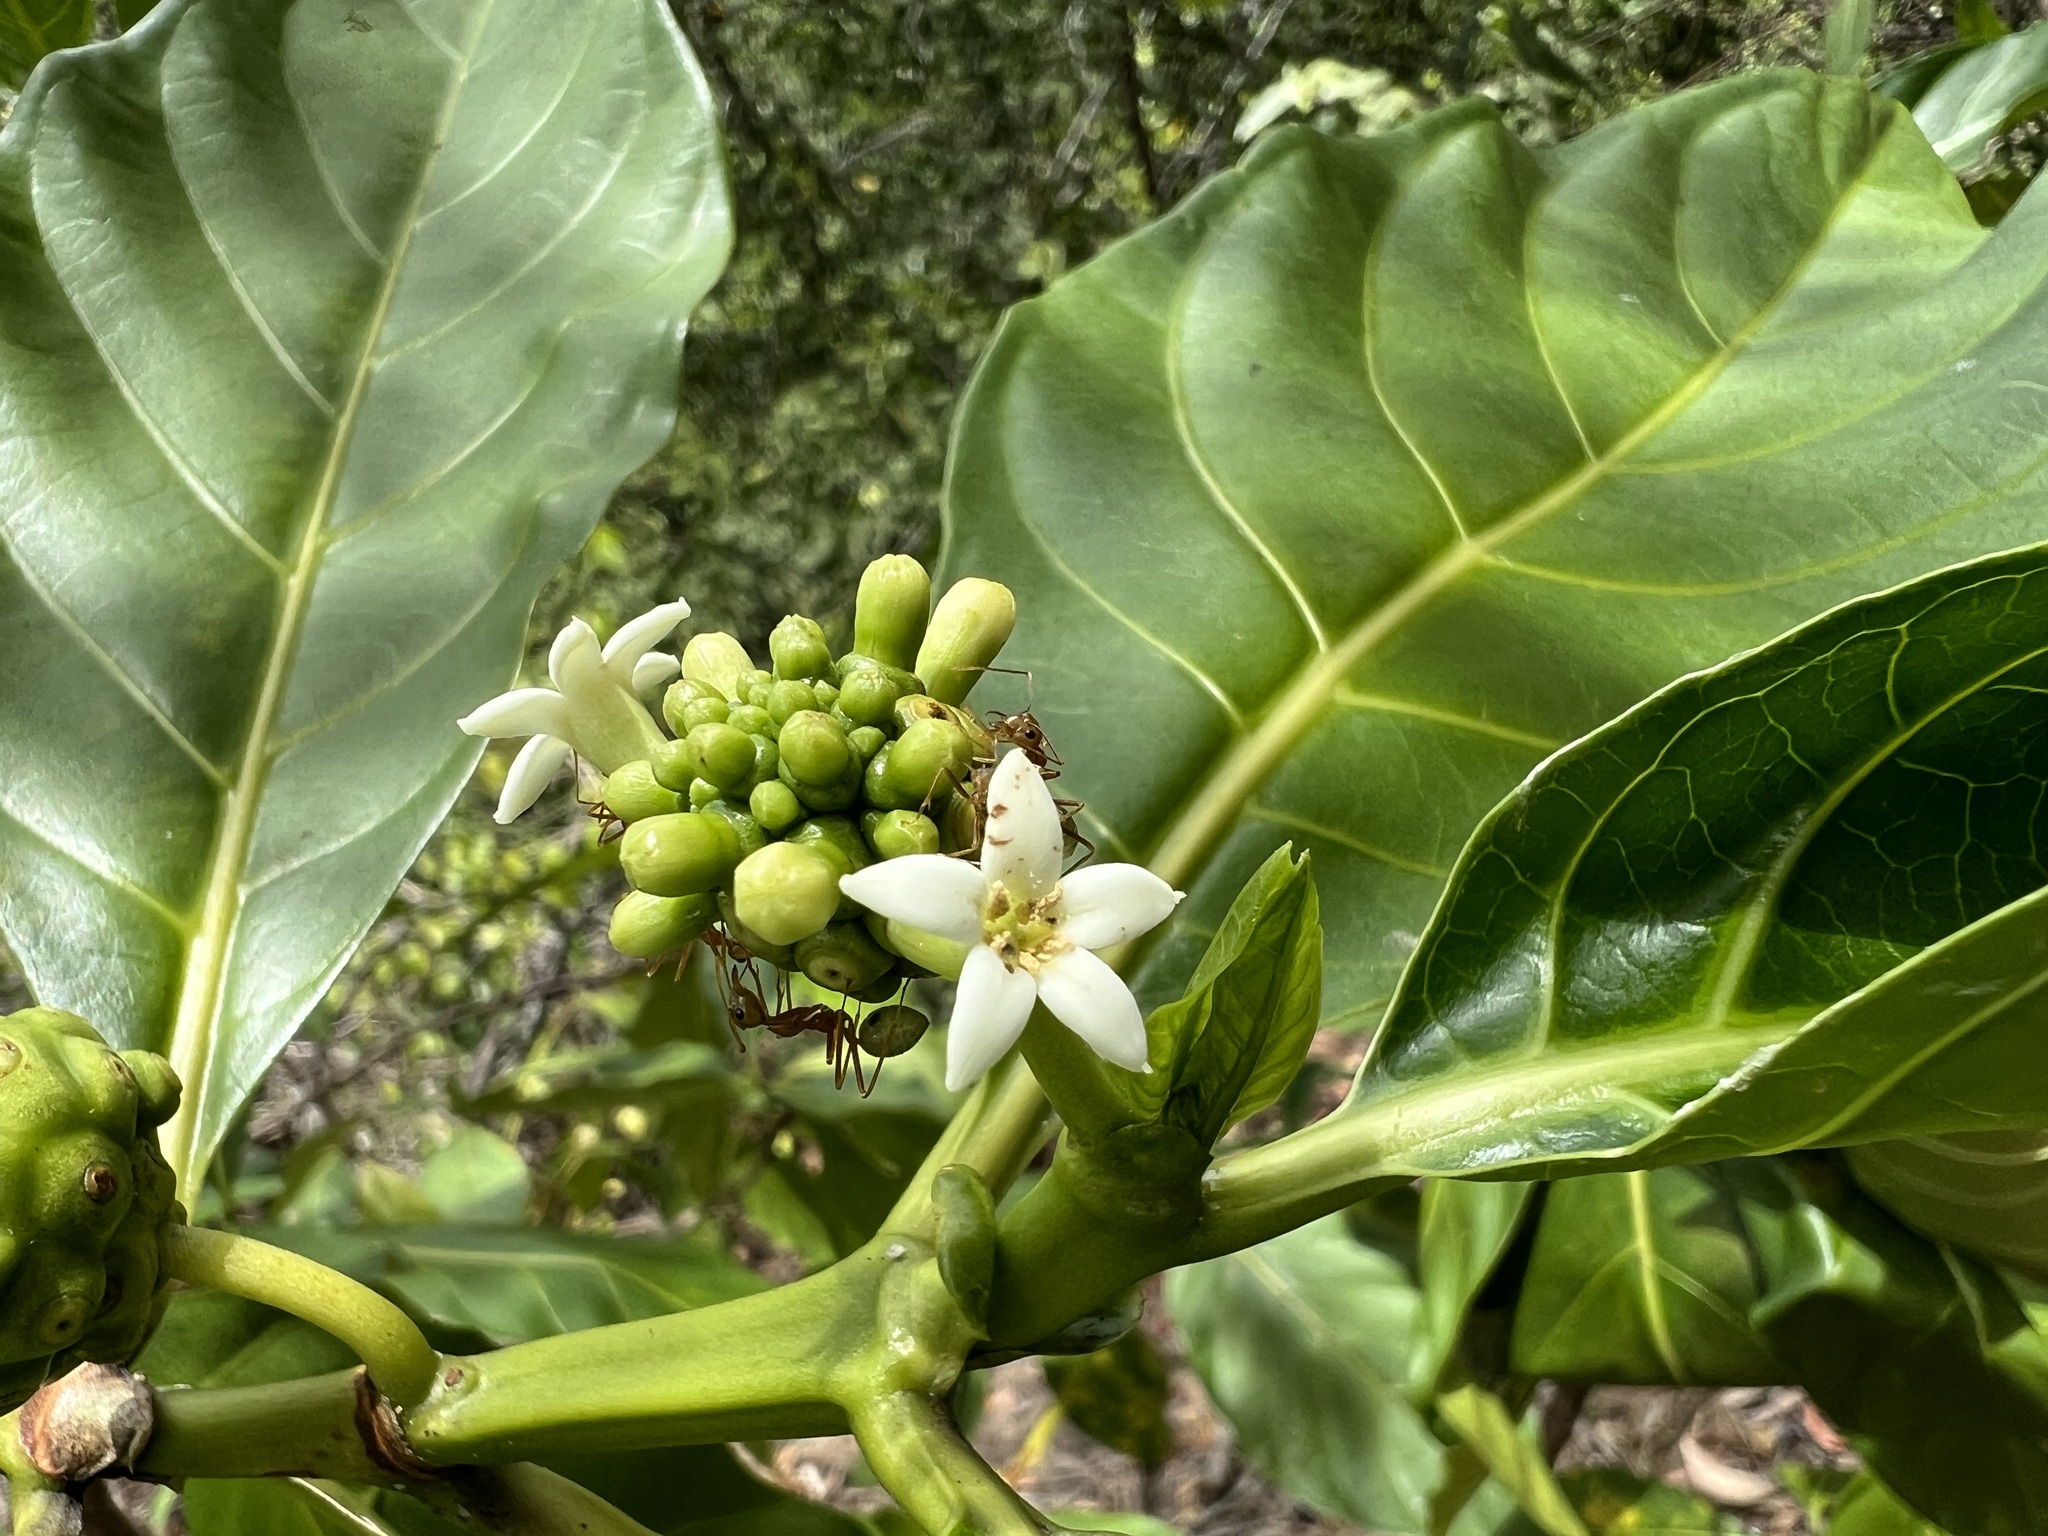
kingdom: Plantae
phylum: Tracheophyta
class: Magnoliopsida
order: Gentianales
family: Rubiaceae
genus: Morinda
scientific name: Morinda citrifolia
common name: Indian-mulberry
